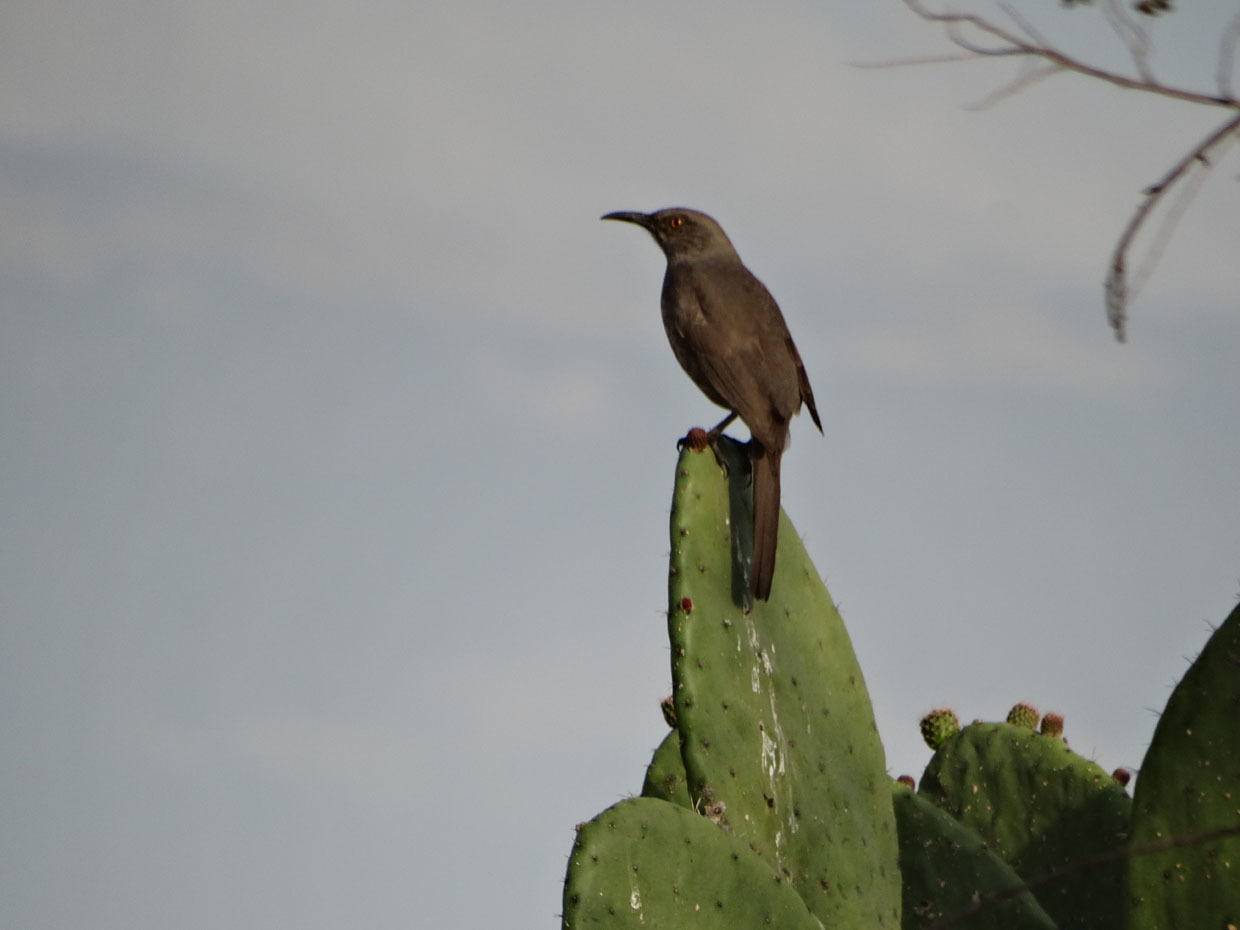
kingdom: Animalia
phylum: Chordata
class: Aves
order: Passeriformes
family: Mimidae
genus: Toxostoma
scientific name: Toxostoma curvirostre
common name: Curve-billed thrasher
